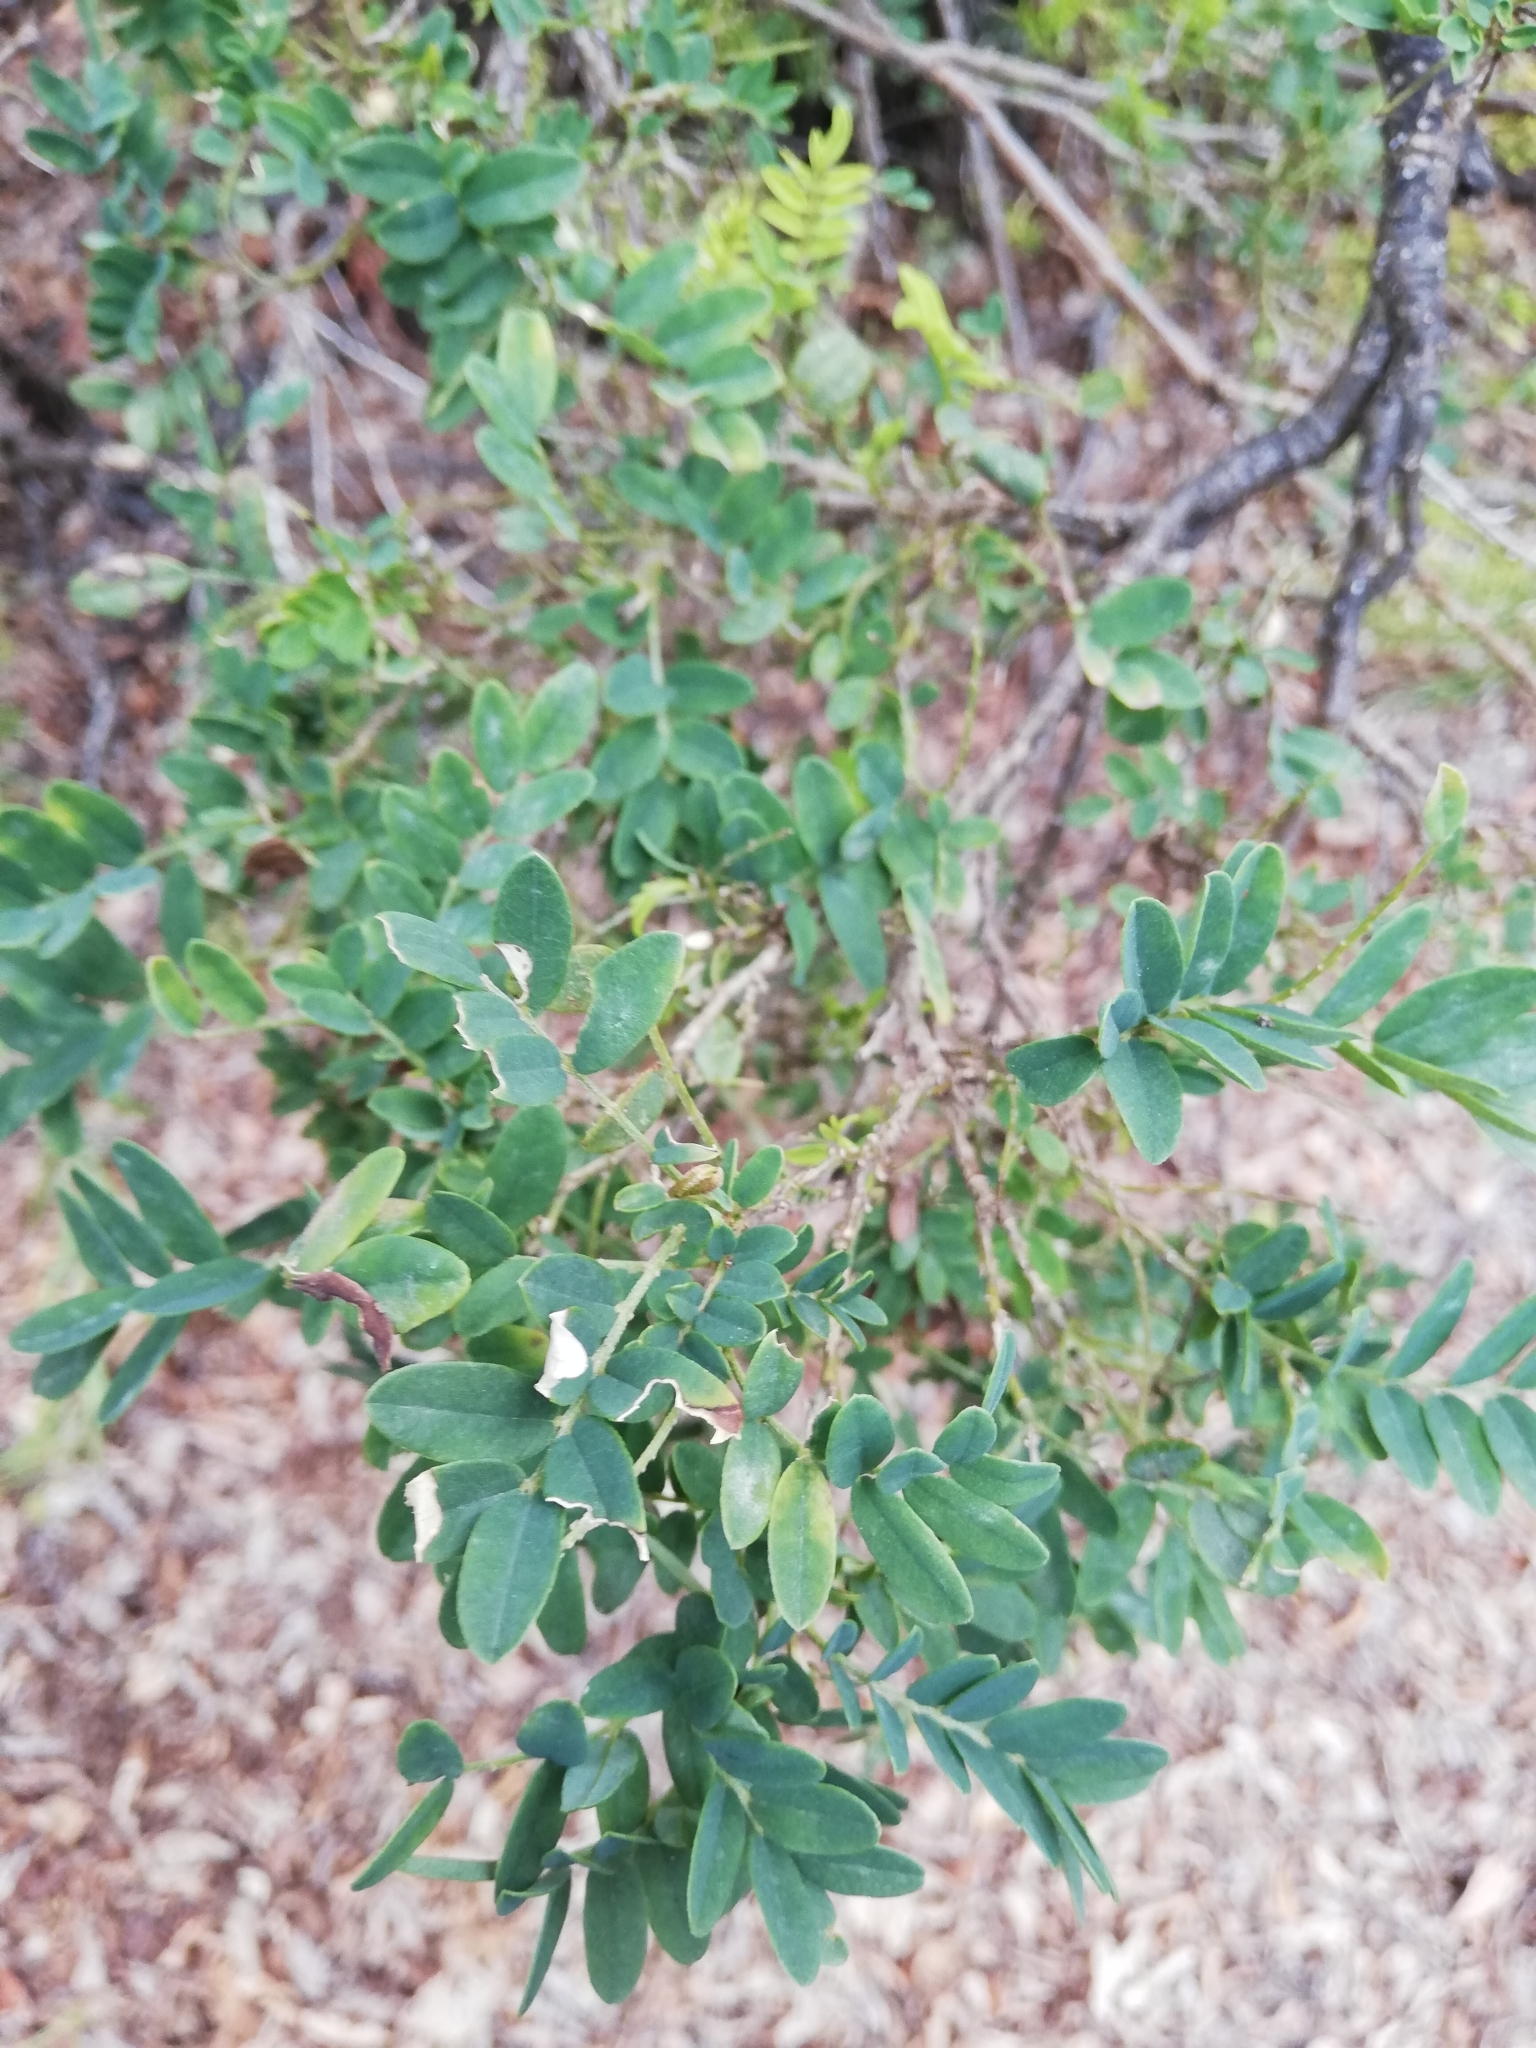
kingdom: Plantae
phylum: Tracheophyta
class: Magnoliopsida
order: Fabales
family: Fabaceae
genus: Sophora
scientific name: Sophora macrocarpa
